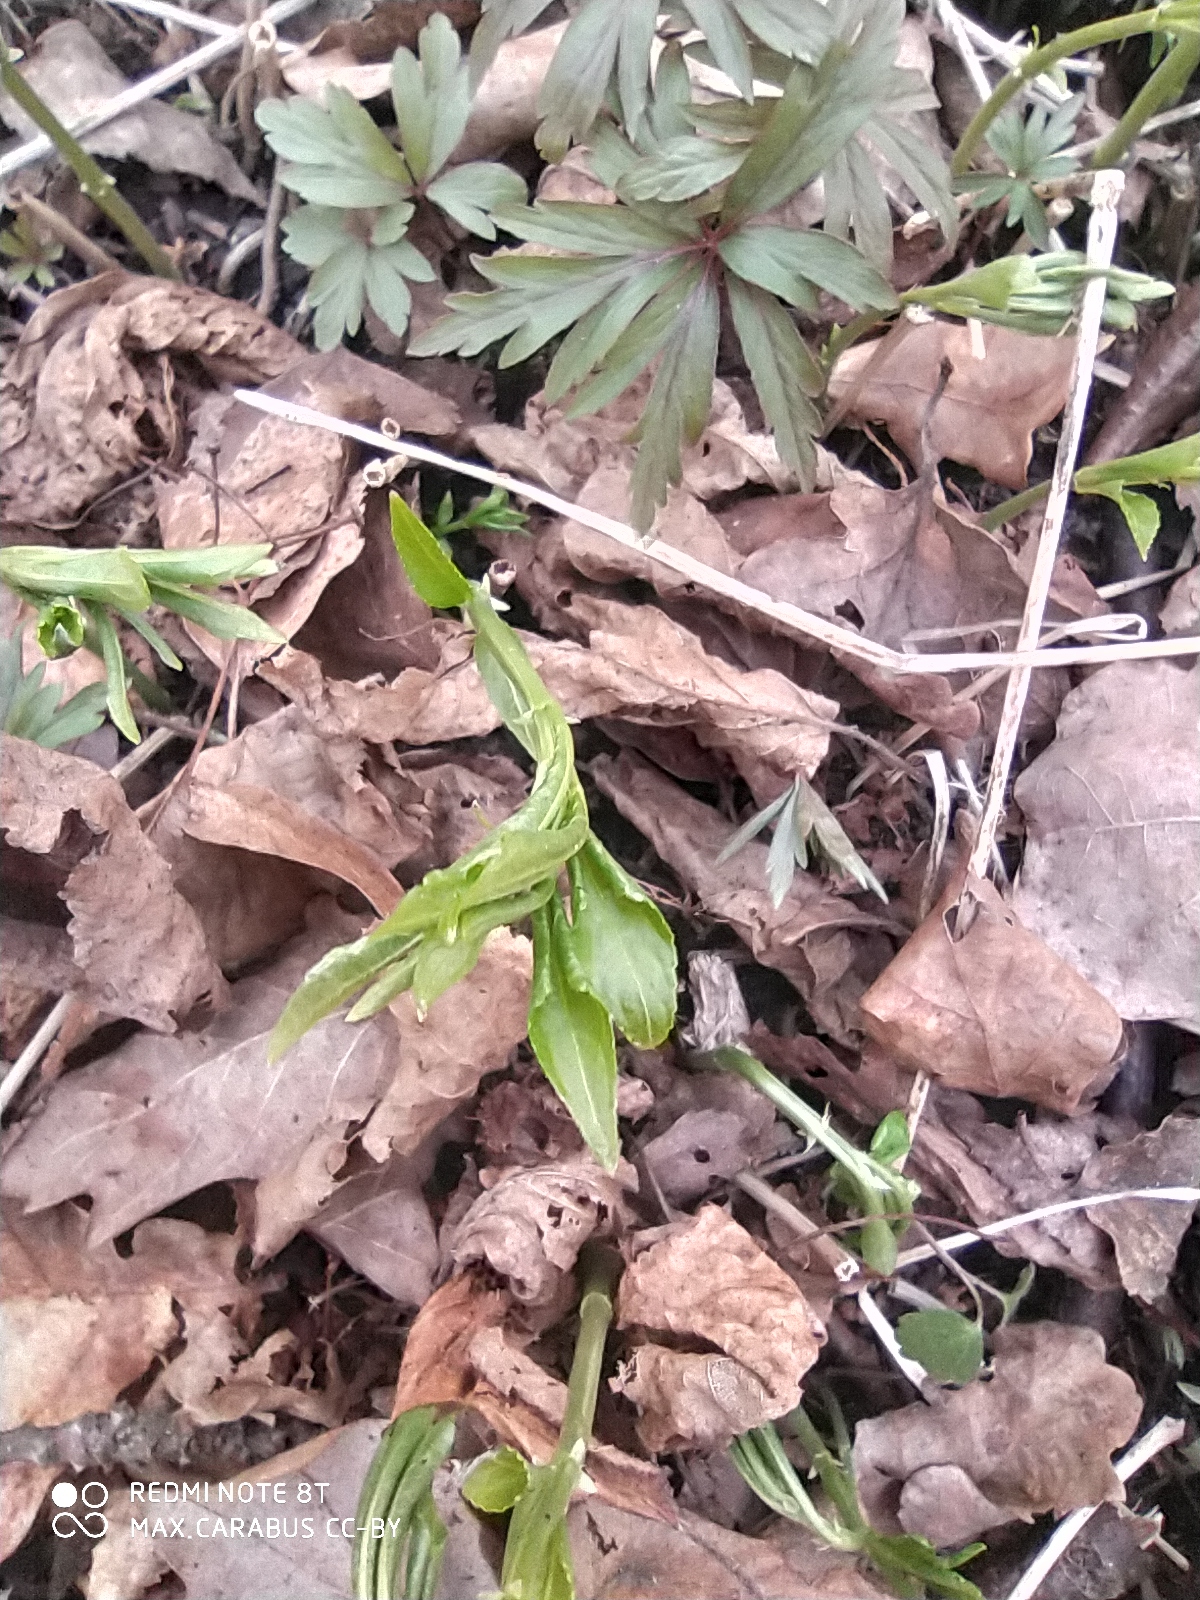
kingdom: Plantae
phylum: Tracheophyta
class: Magnoliopsida
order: Malpighiales
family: Euphorbiaceae
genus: Mercurialis
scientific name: Mercurialis perennis
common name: Dog mercury
